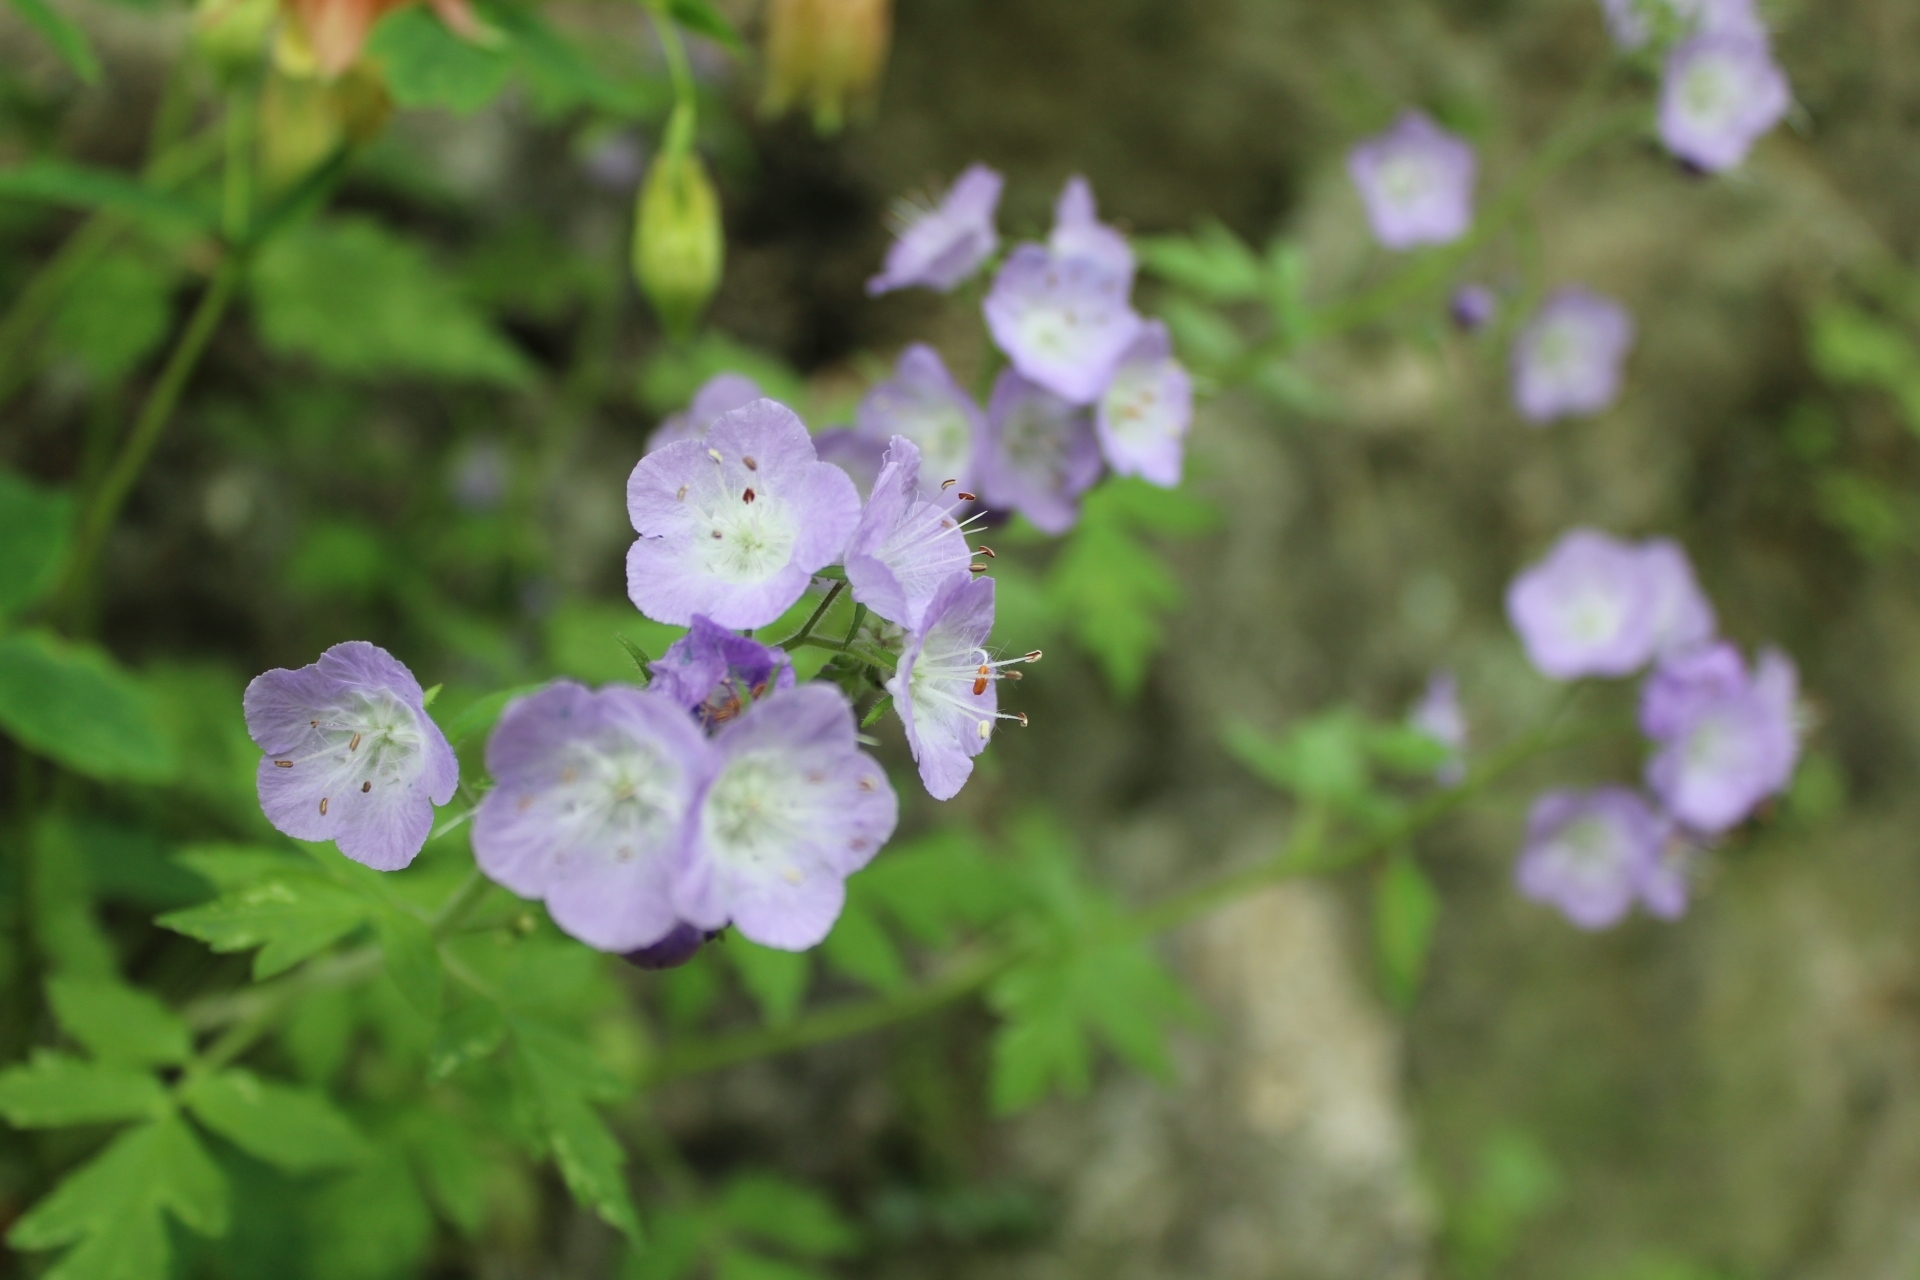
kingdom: Plantae
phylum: Tracheophyta
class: Magnoliopsida
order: Boraginales
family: Hydrophyllaceae
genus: Phacelia
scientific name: Phacelia bipinnatifida
